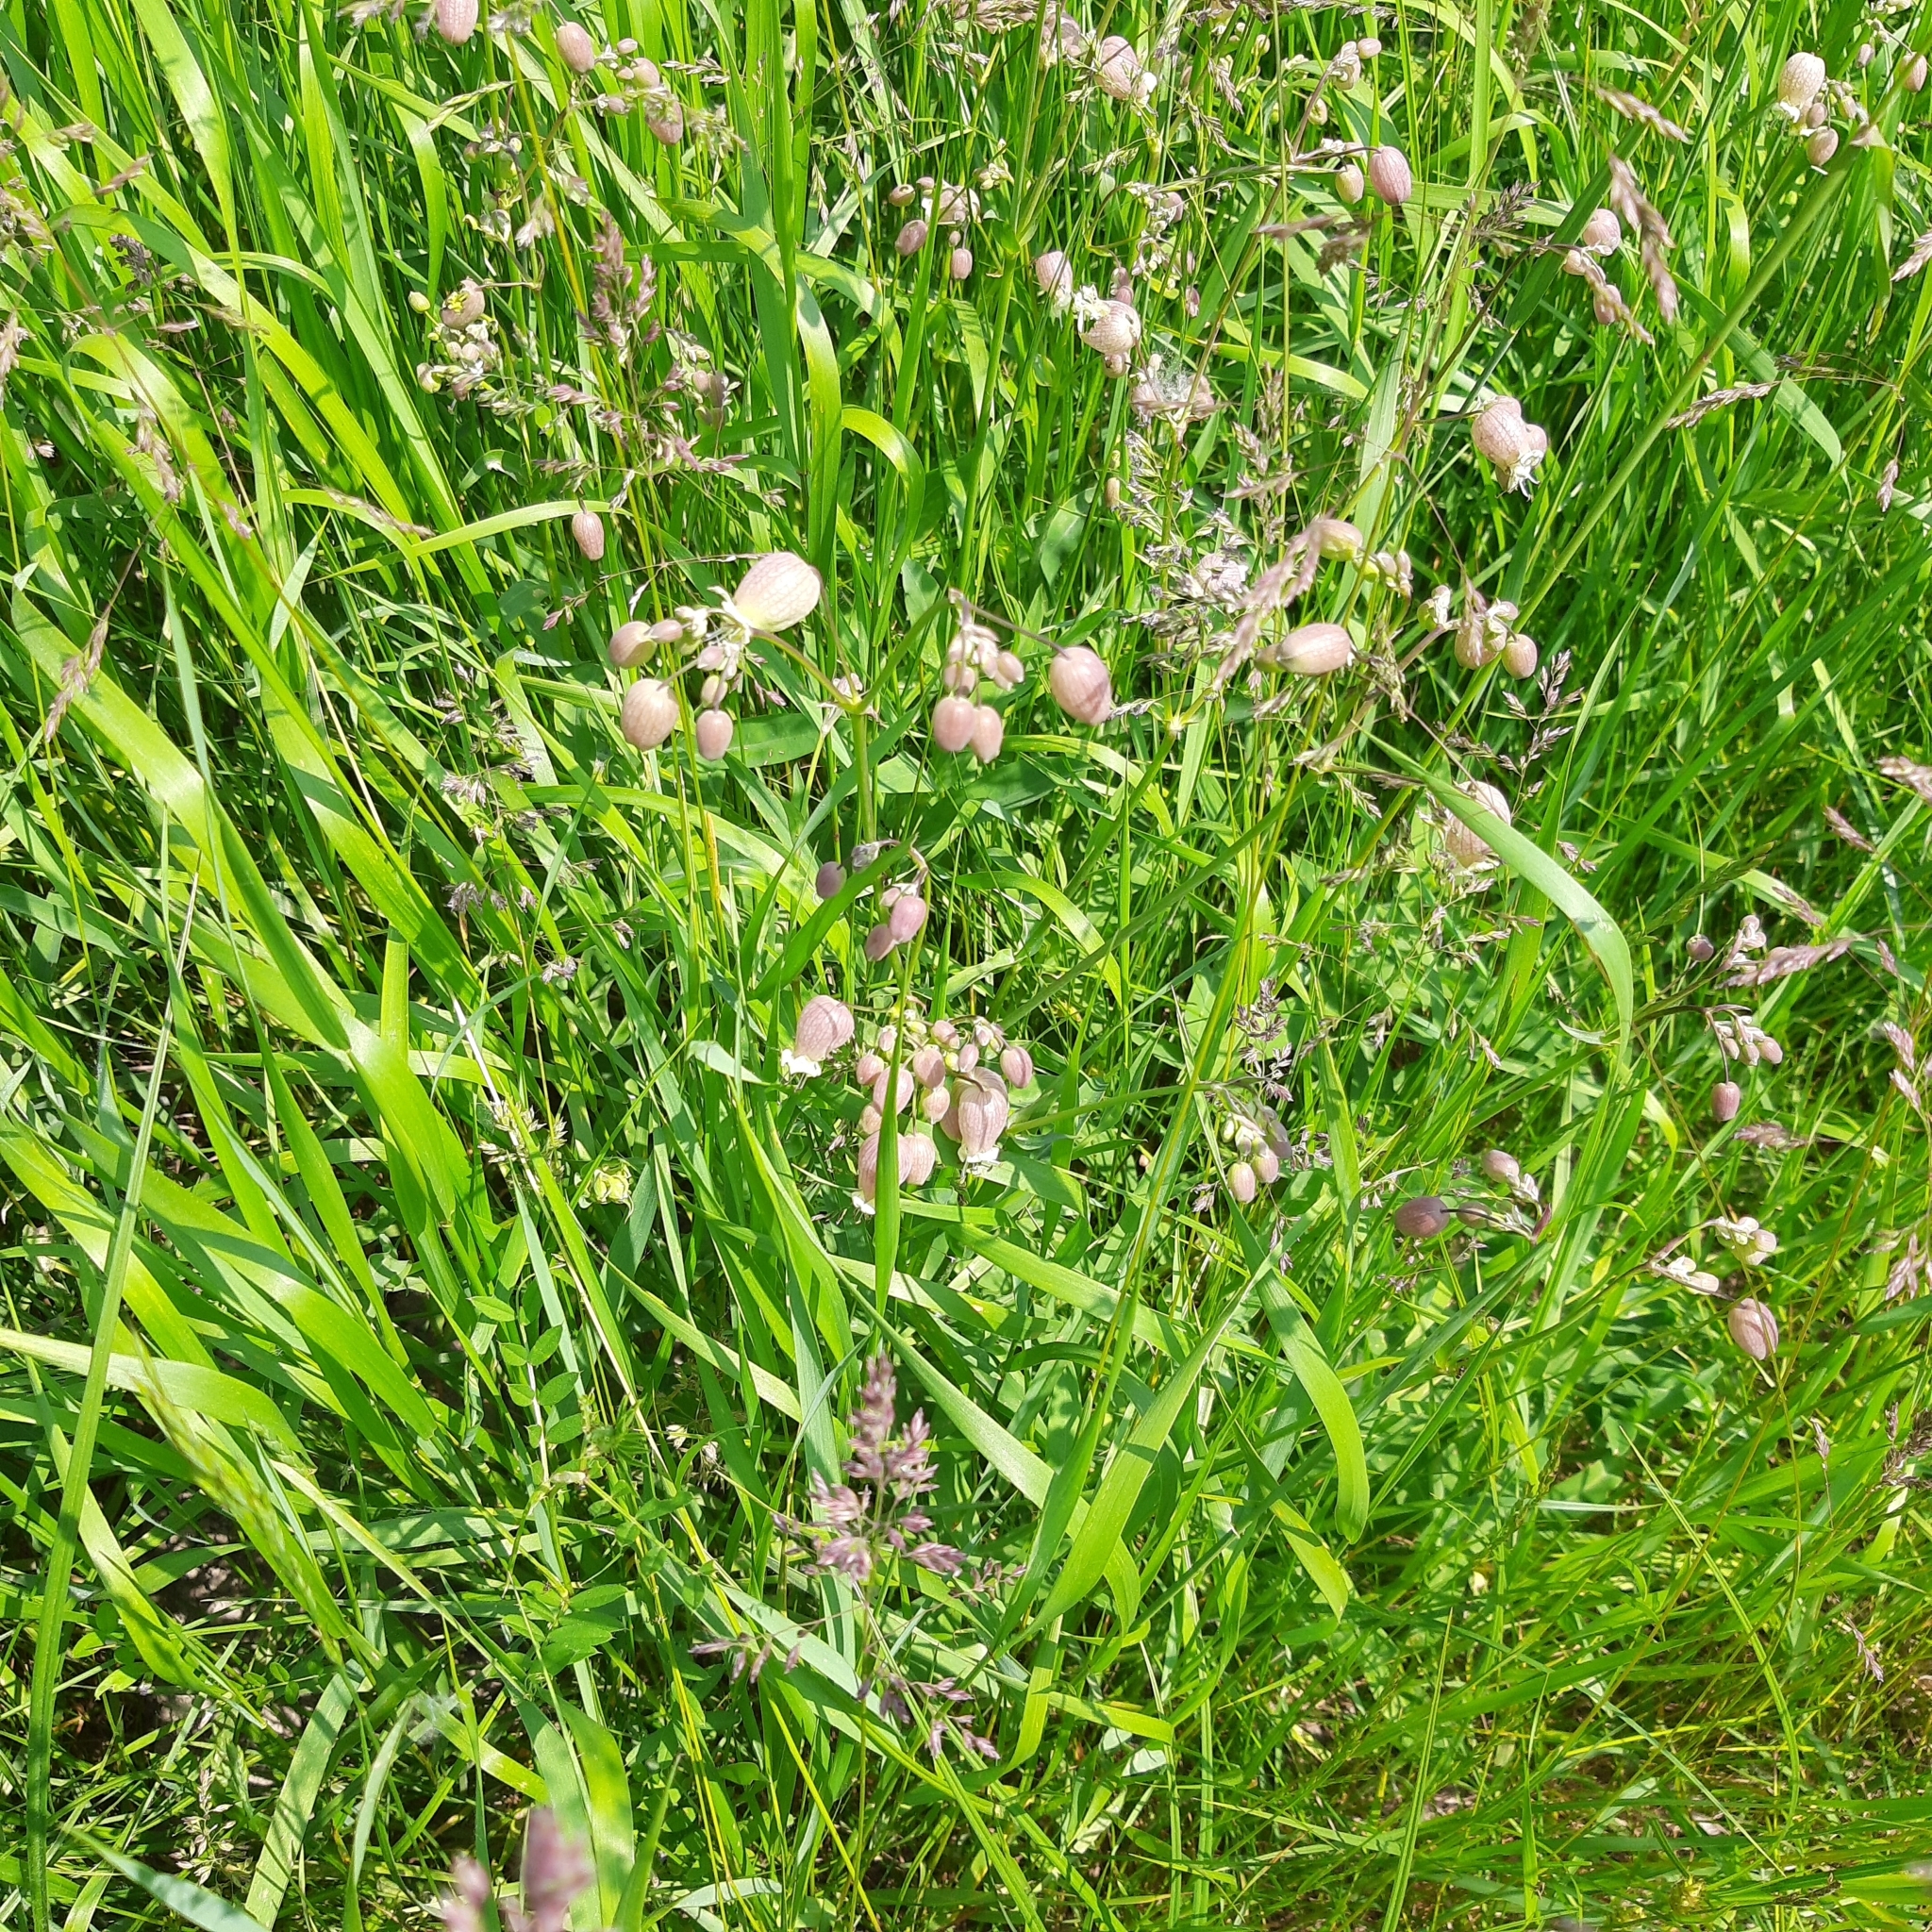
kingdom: Plantae
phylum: Tracheophyta
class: Magnoliopsida
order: Caryophyllales
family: Caryophyllaceae
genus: Silene
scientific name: Silene vulgaris
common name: Bladder campion
